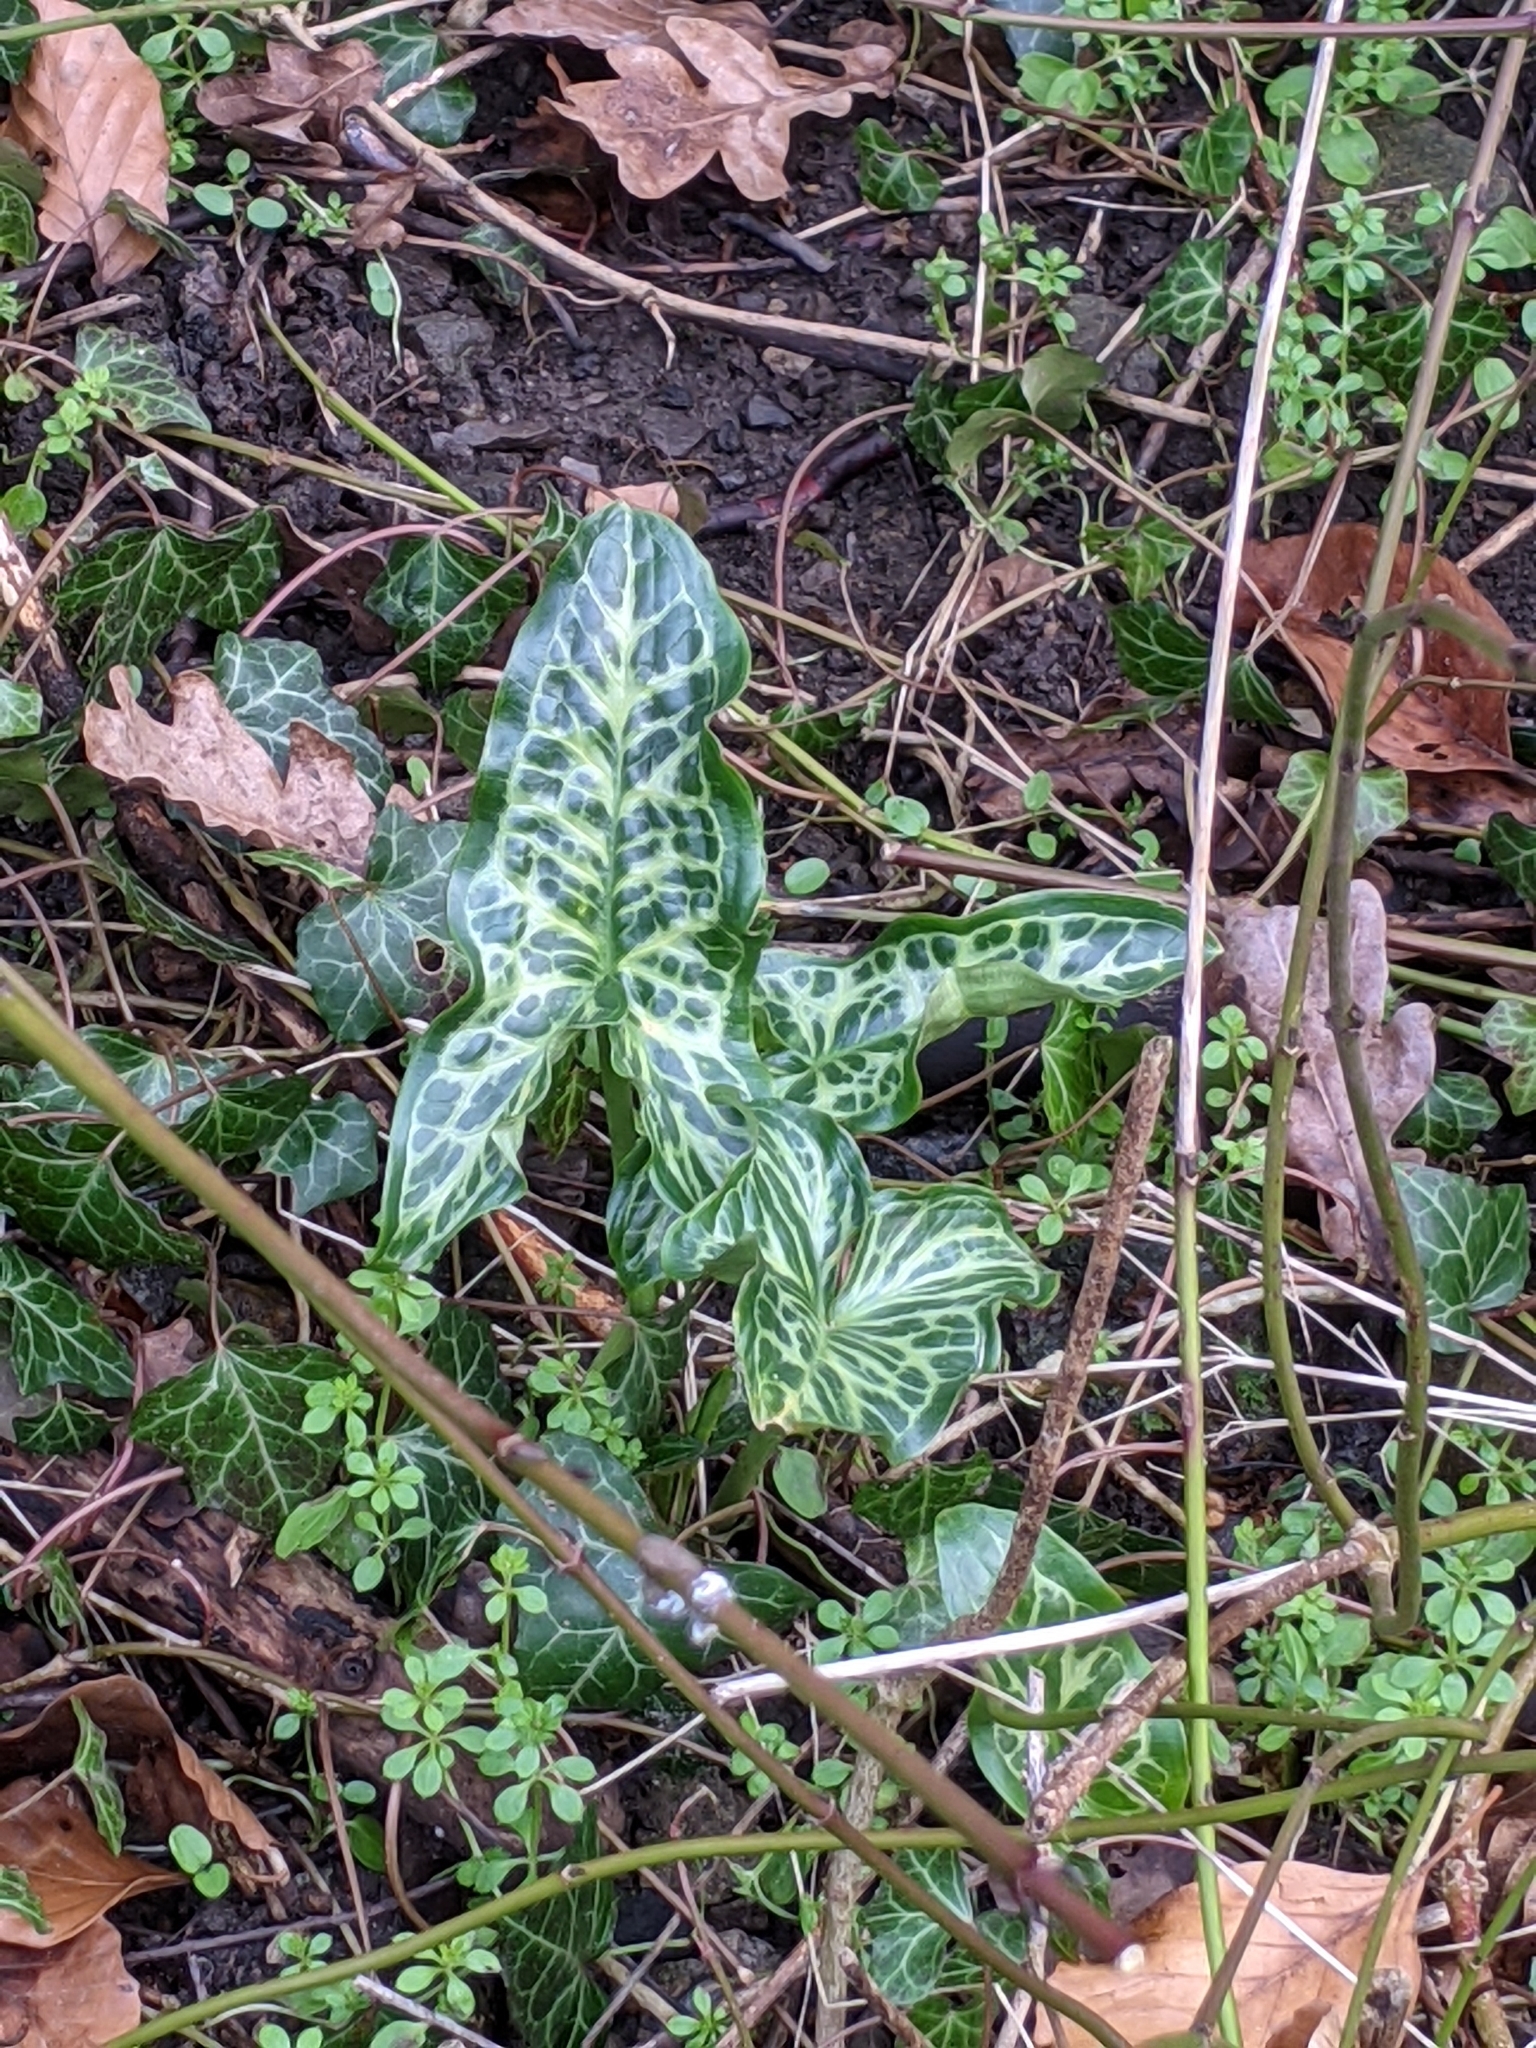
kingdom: Plantae
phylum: Tracheophyta
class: Liliopsida
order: Alismatales
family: Araceae
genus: Arum
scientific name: Arum italicum
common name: Italian lords-and-ladies
